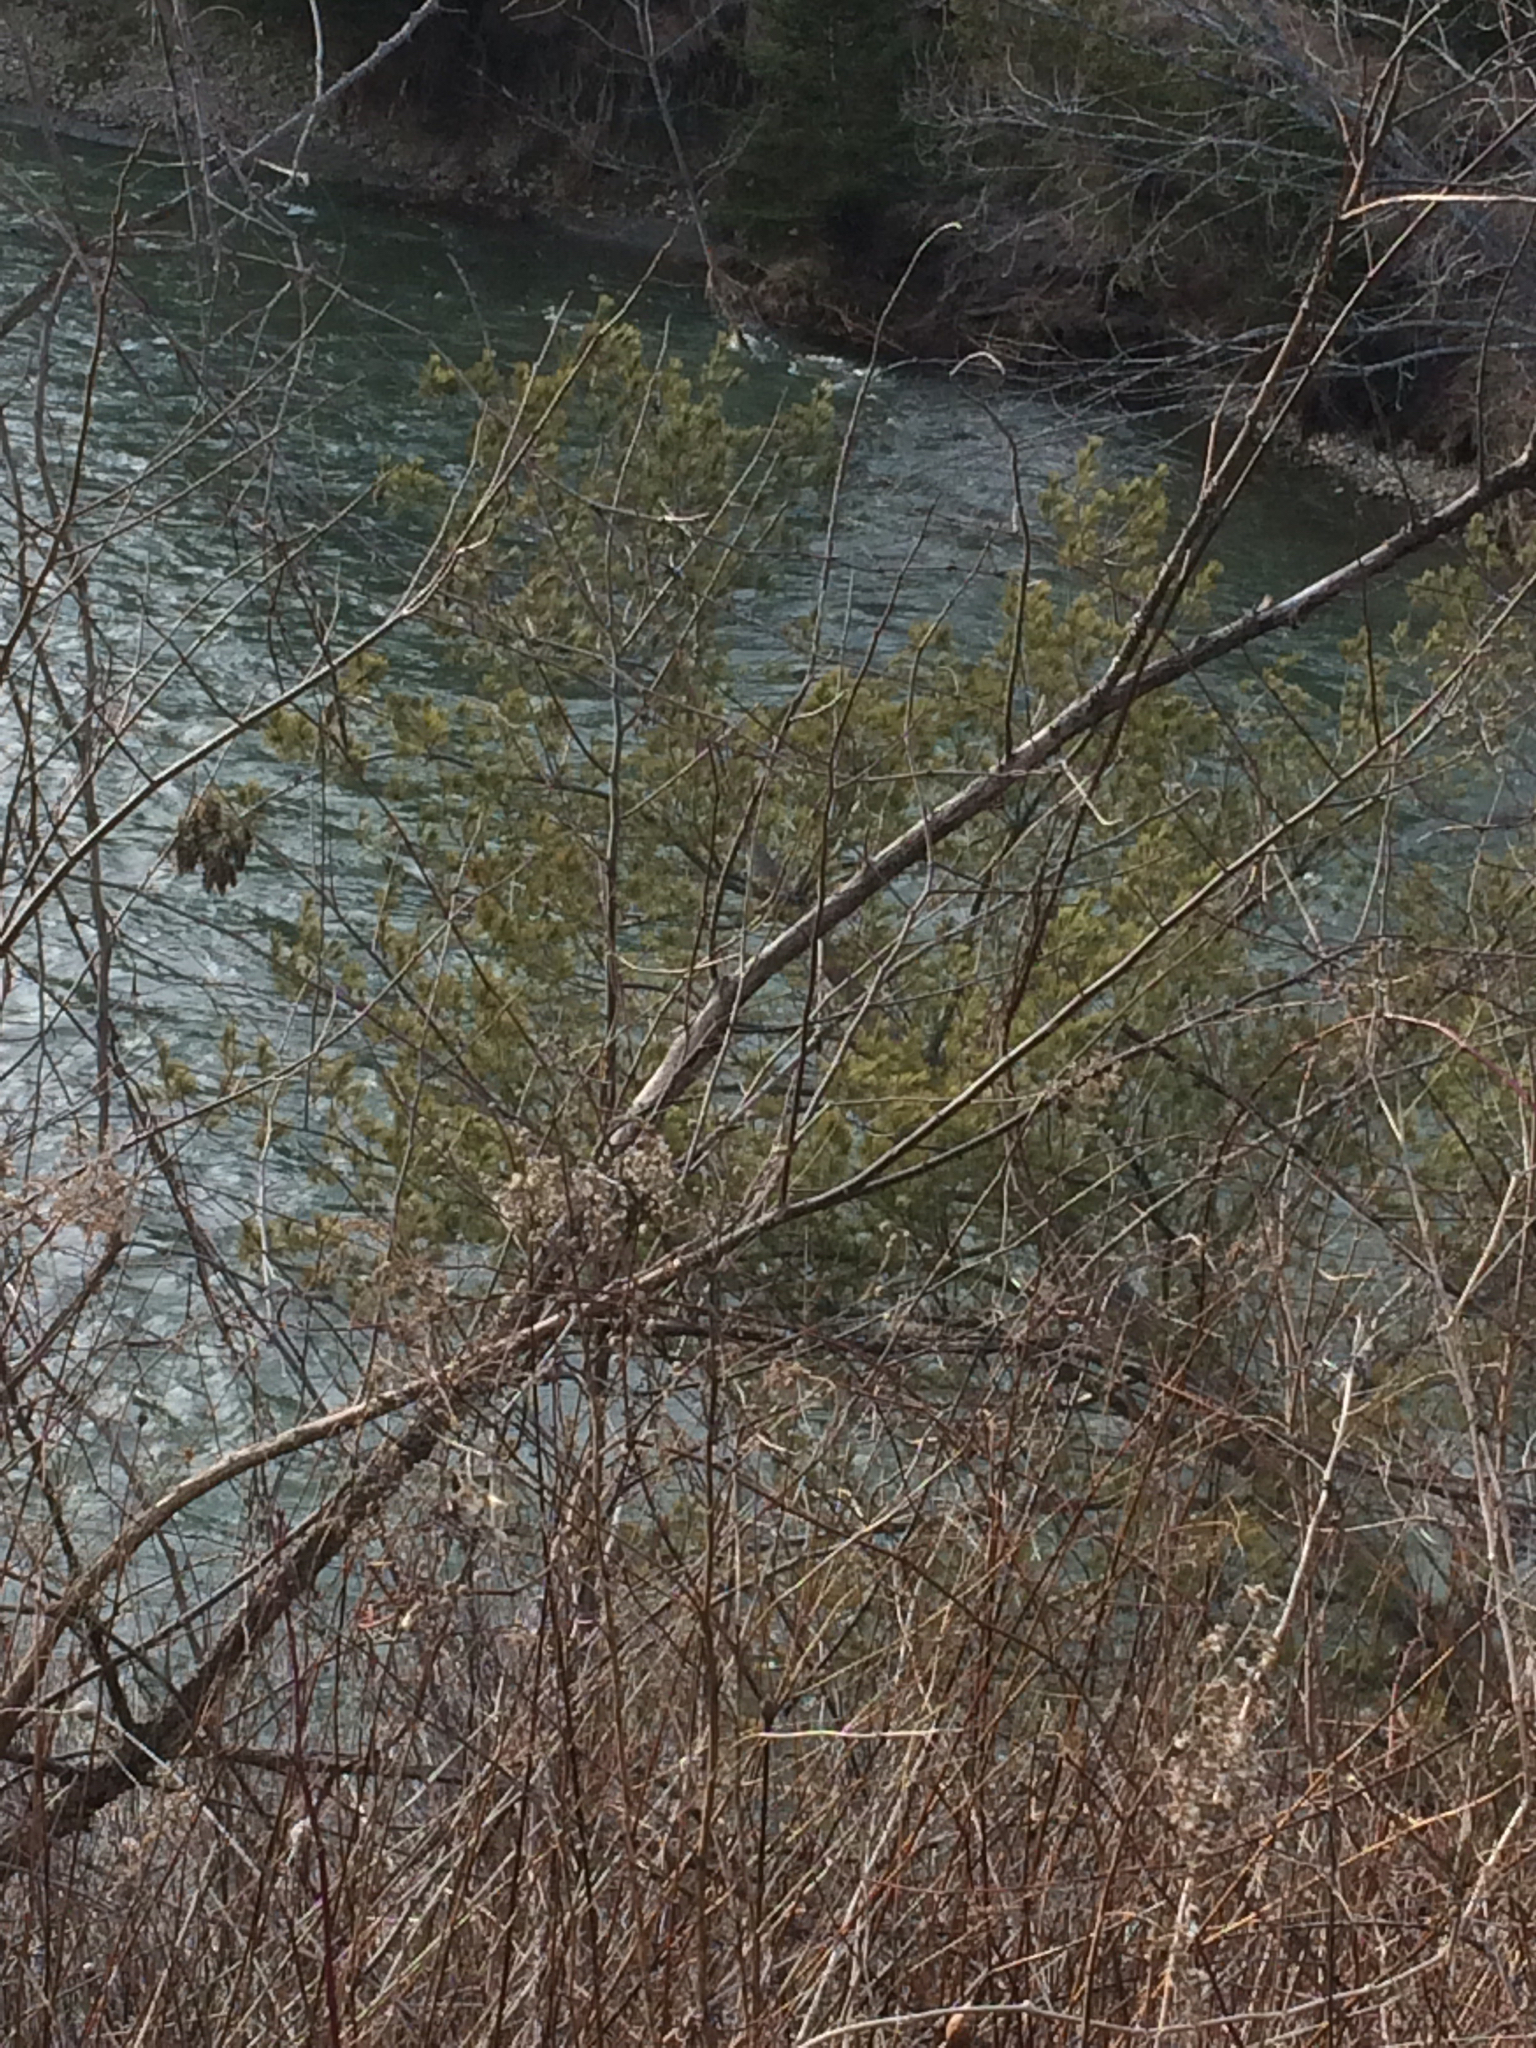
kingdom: Plantae
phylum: Tracheophyta
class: Pinopsida
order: Pinales
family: Pinaceae
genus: Pinus
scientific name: Pinus strobus
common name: Weymouth pine
